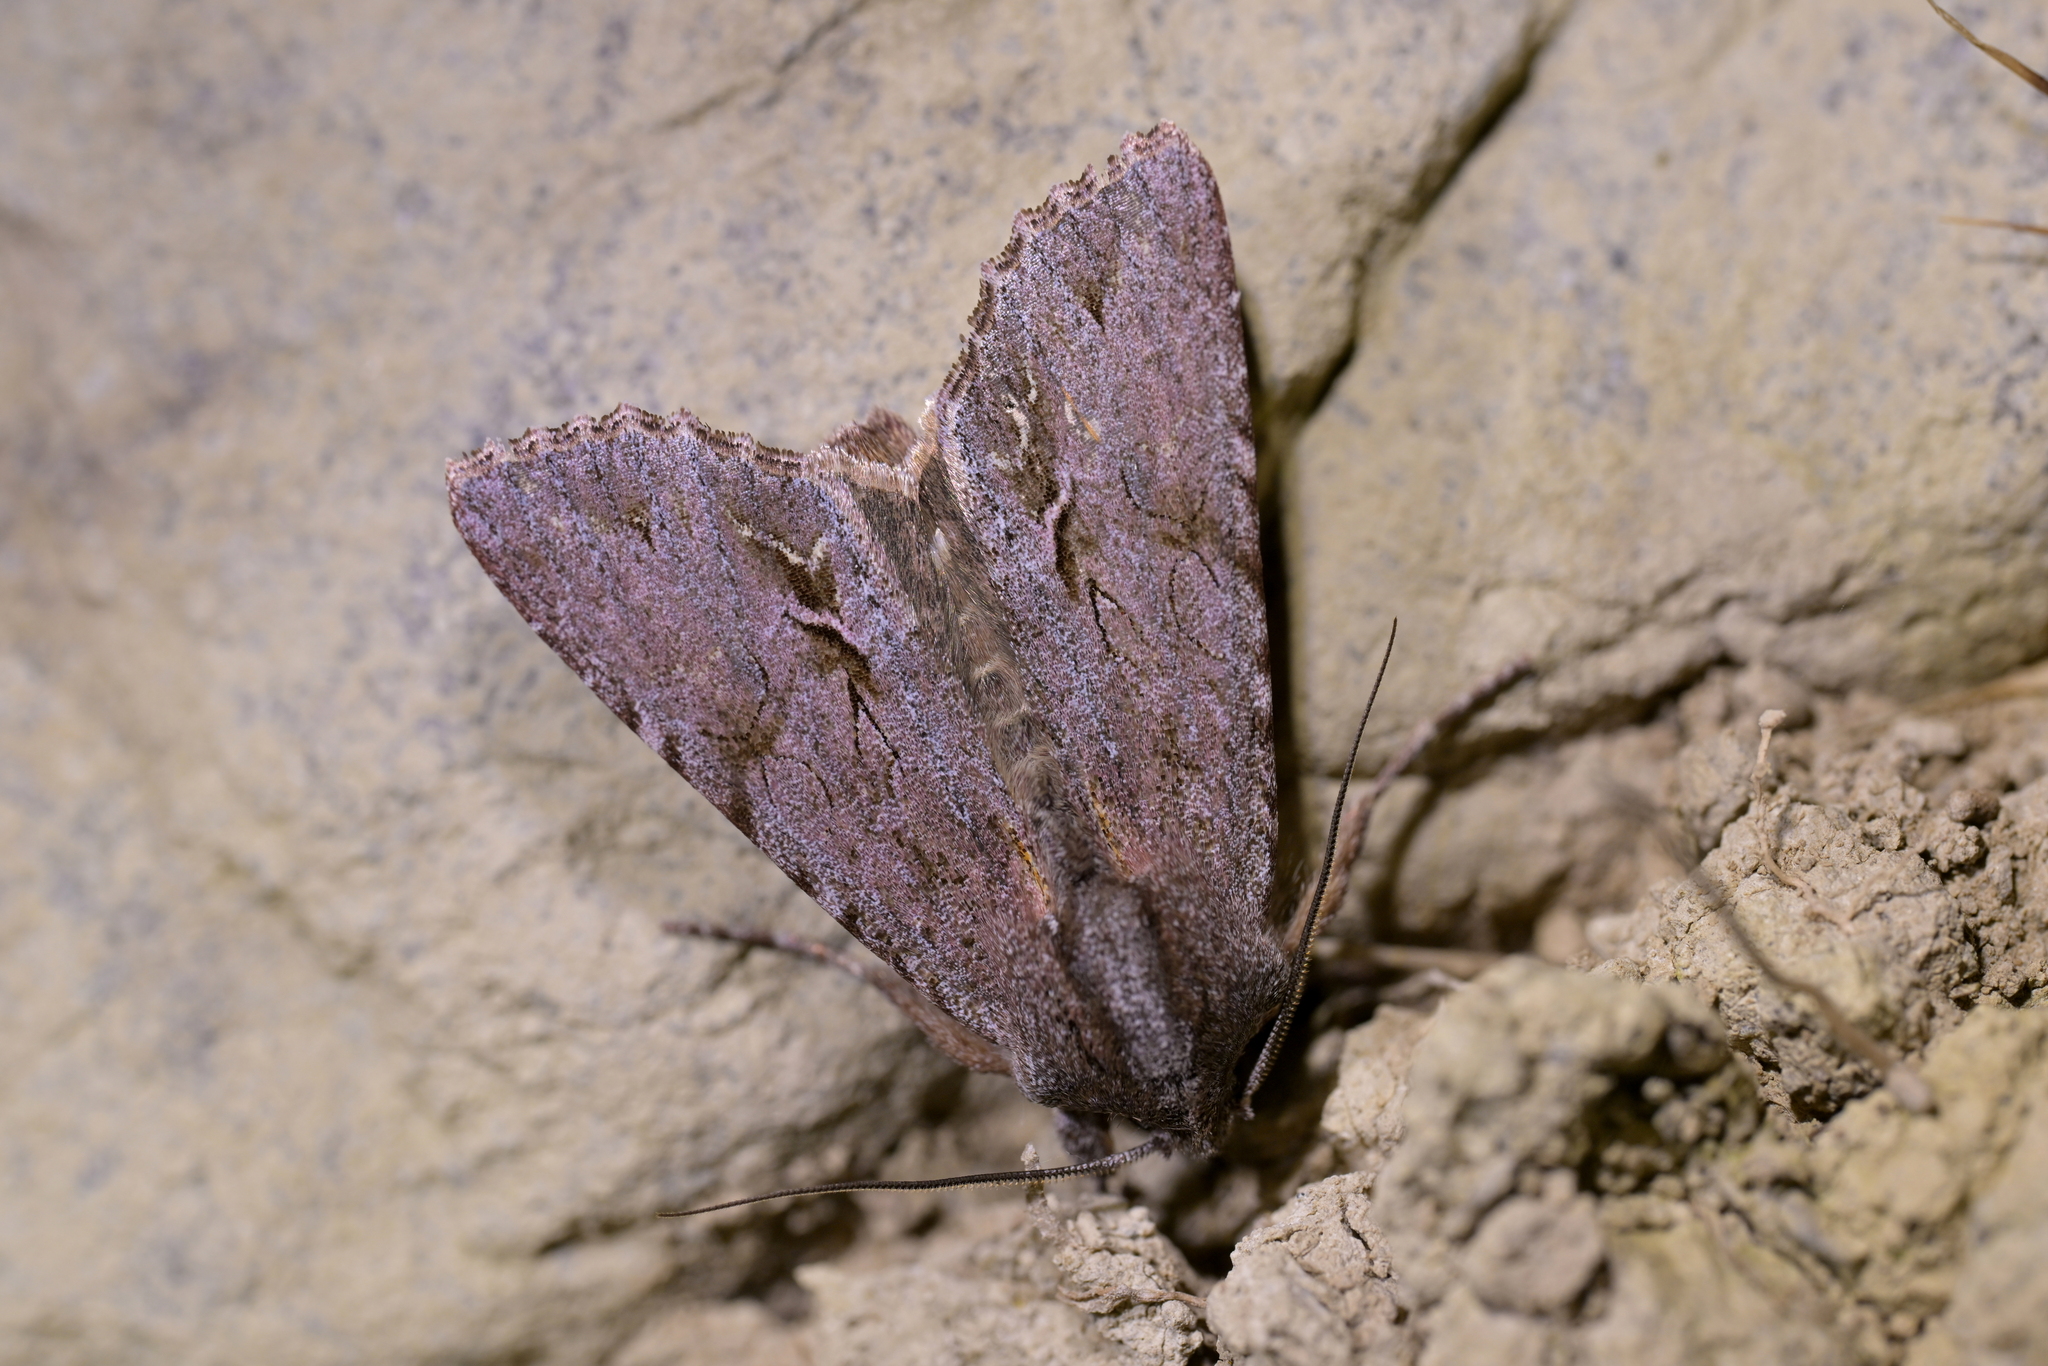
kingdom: Animalia
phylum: Arthropoda
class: Insecta
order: Lepidoptera
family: Noctuidae
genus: Ichneutica
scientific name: Ichneutica
